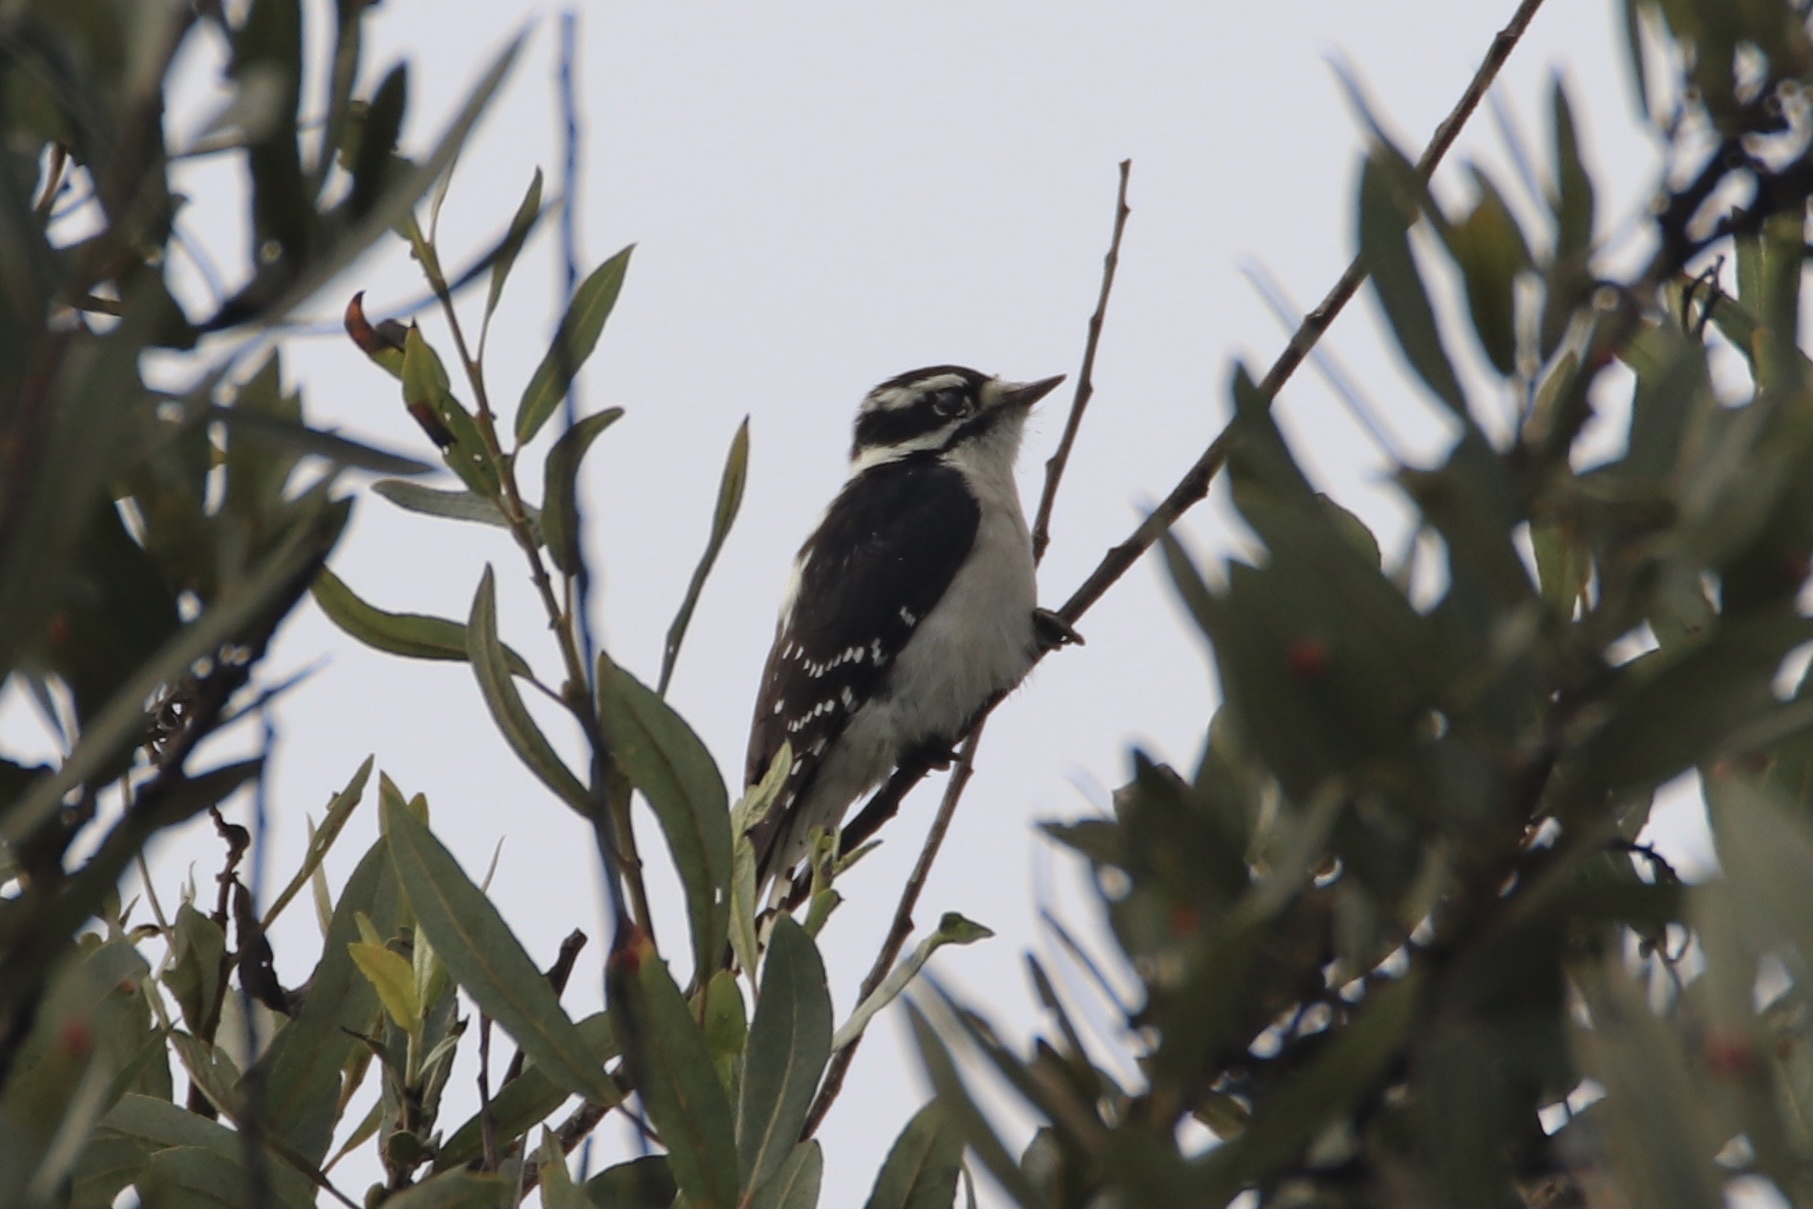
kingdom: Animalia
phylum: Chordata
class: Aves
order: Piciformes
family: Picidae
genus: Dryobates
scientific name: Dryobates pubescens
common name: Downy woodpecker
